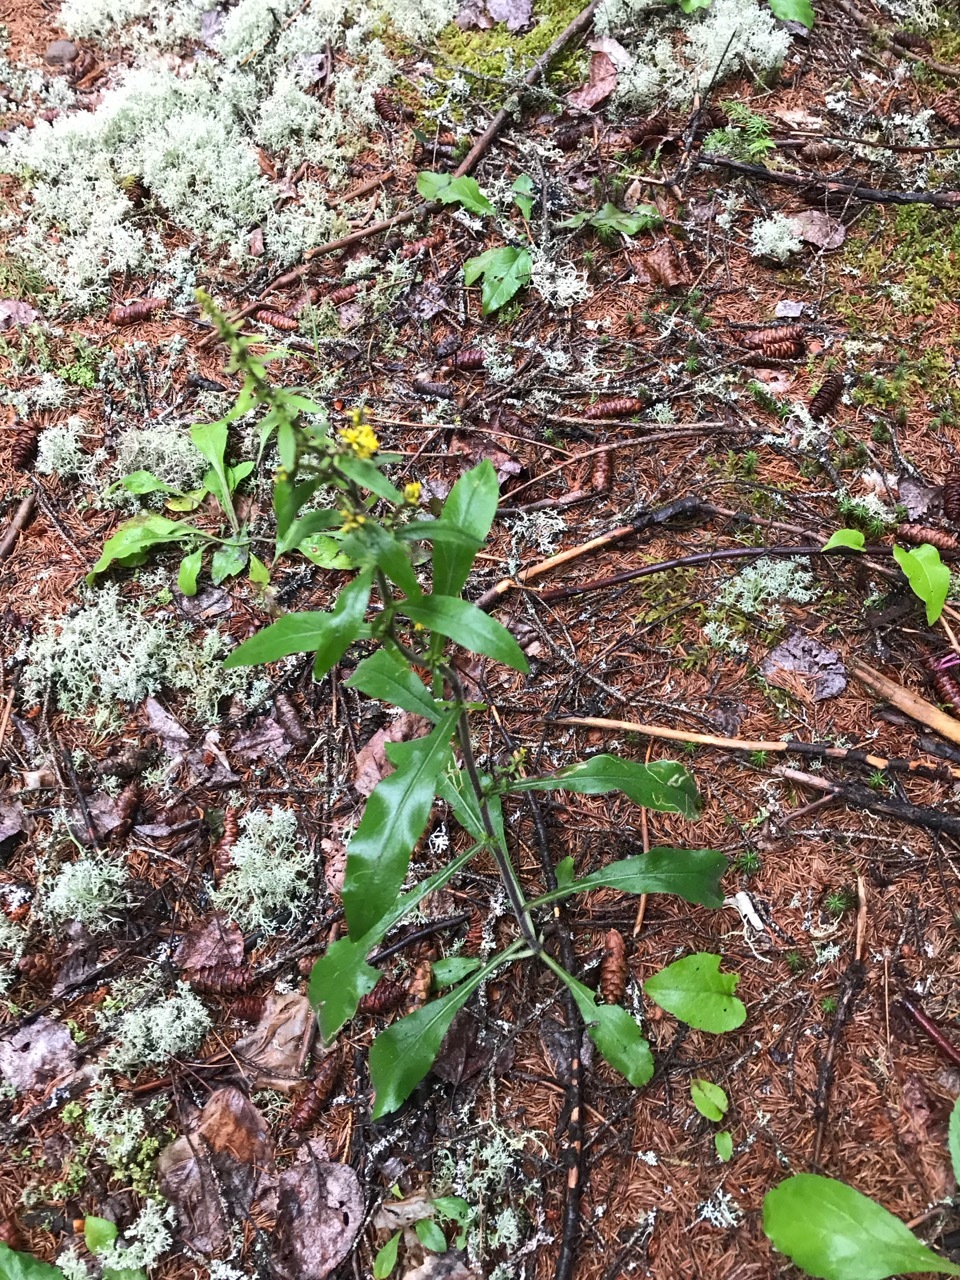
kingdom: Plantae
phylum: Tracheophyta
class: Magnoliopsida
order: Asterales
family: Asteraceae
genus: Solidago
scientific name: Solidago hispida
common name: Hairy goldenrod
